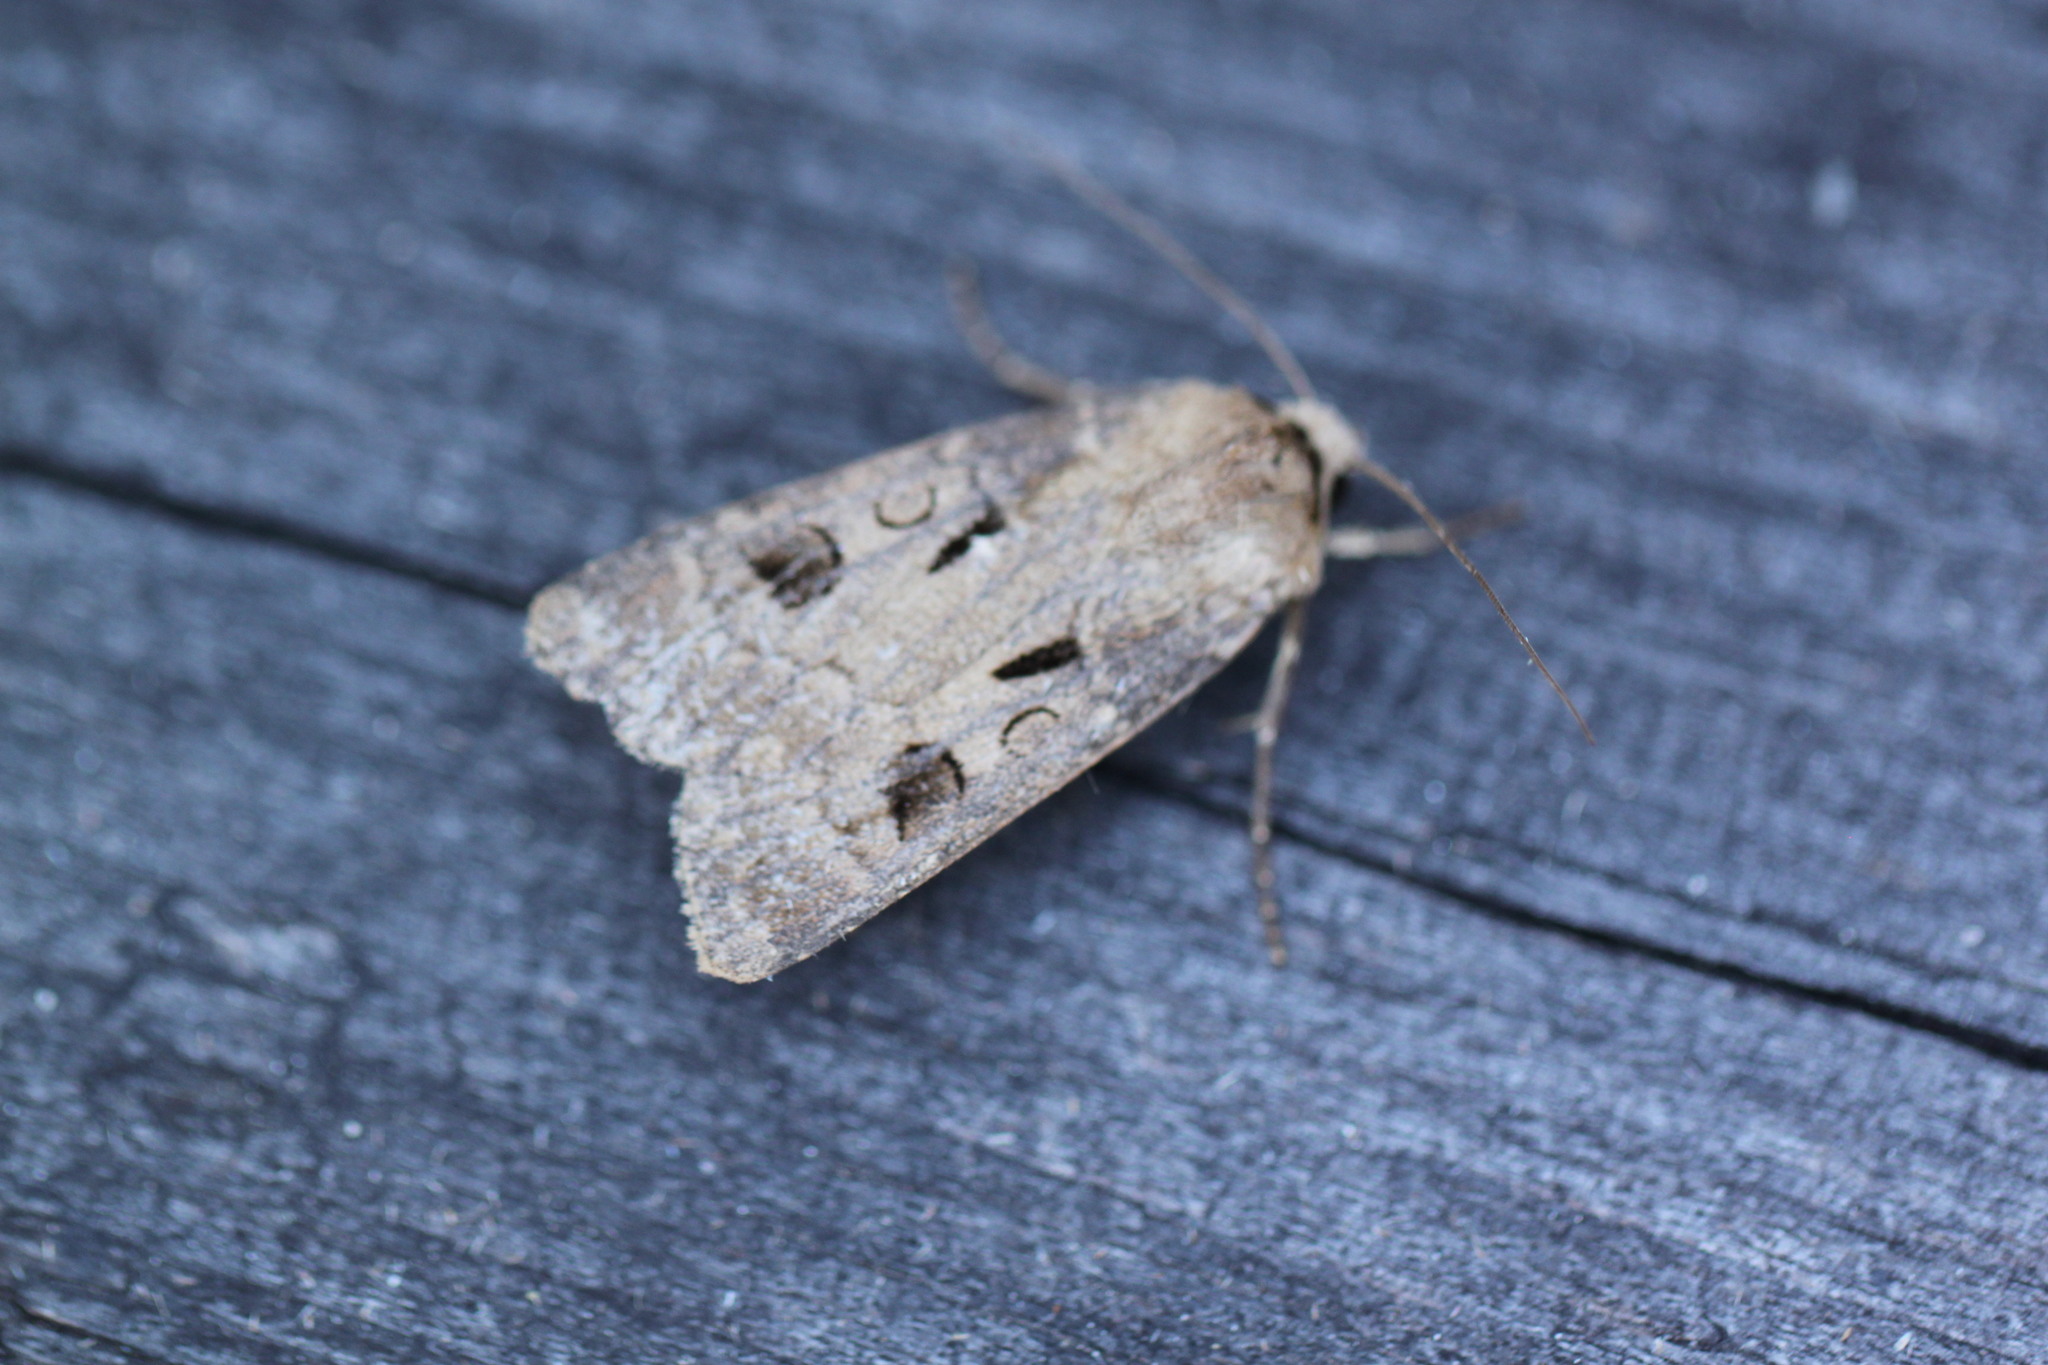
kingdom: Animalia
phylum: Arthropoda
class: Insecta
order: Lepidoptera
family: Noctuidae
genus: Agrotis
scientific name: Agrotis exclamationis
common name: Heart and dart
